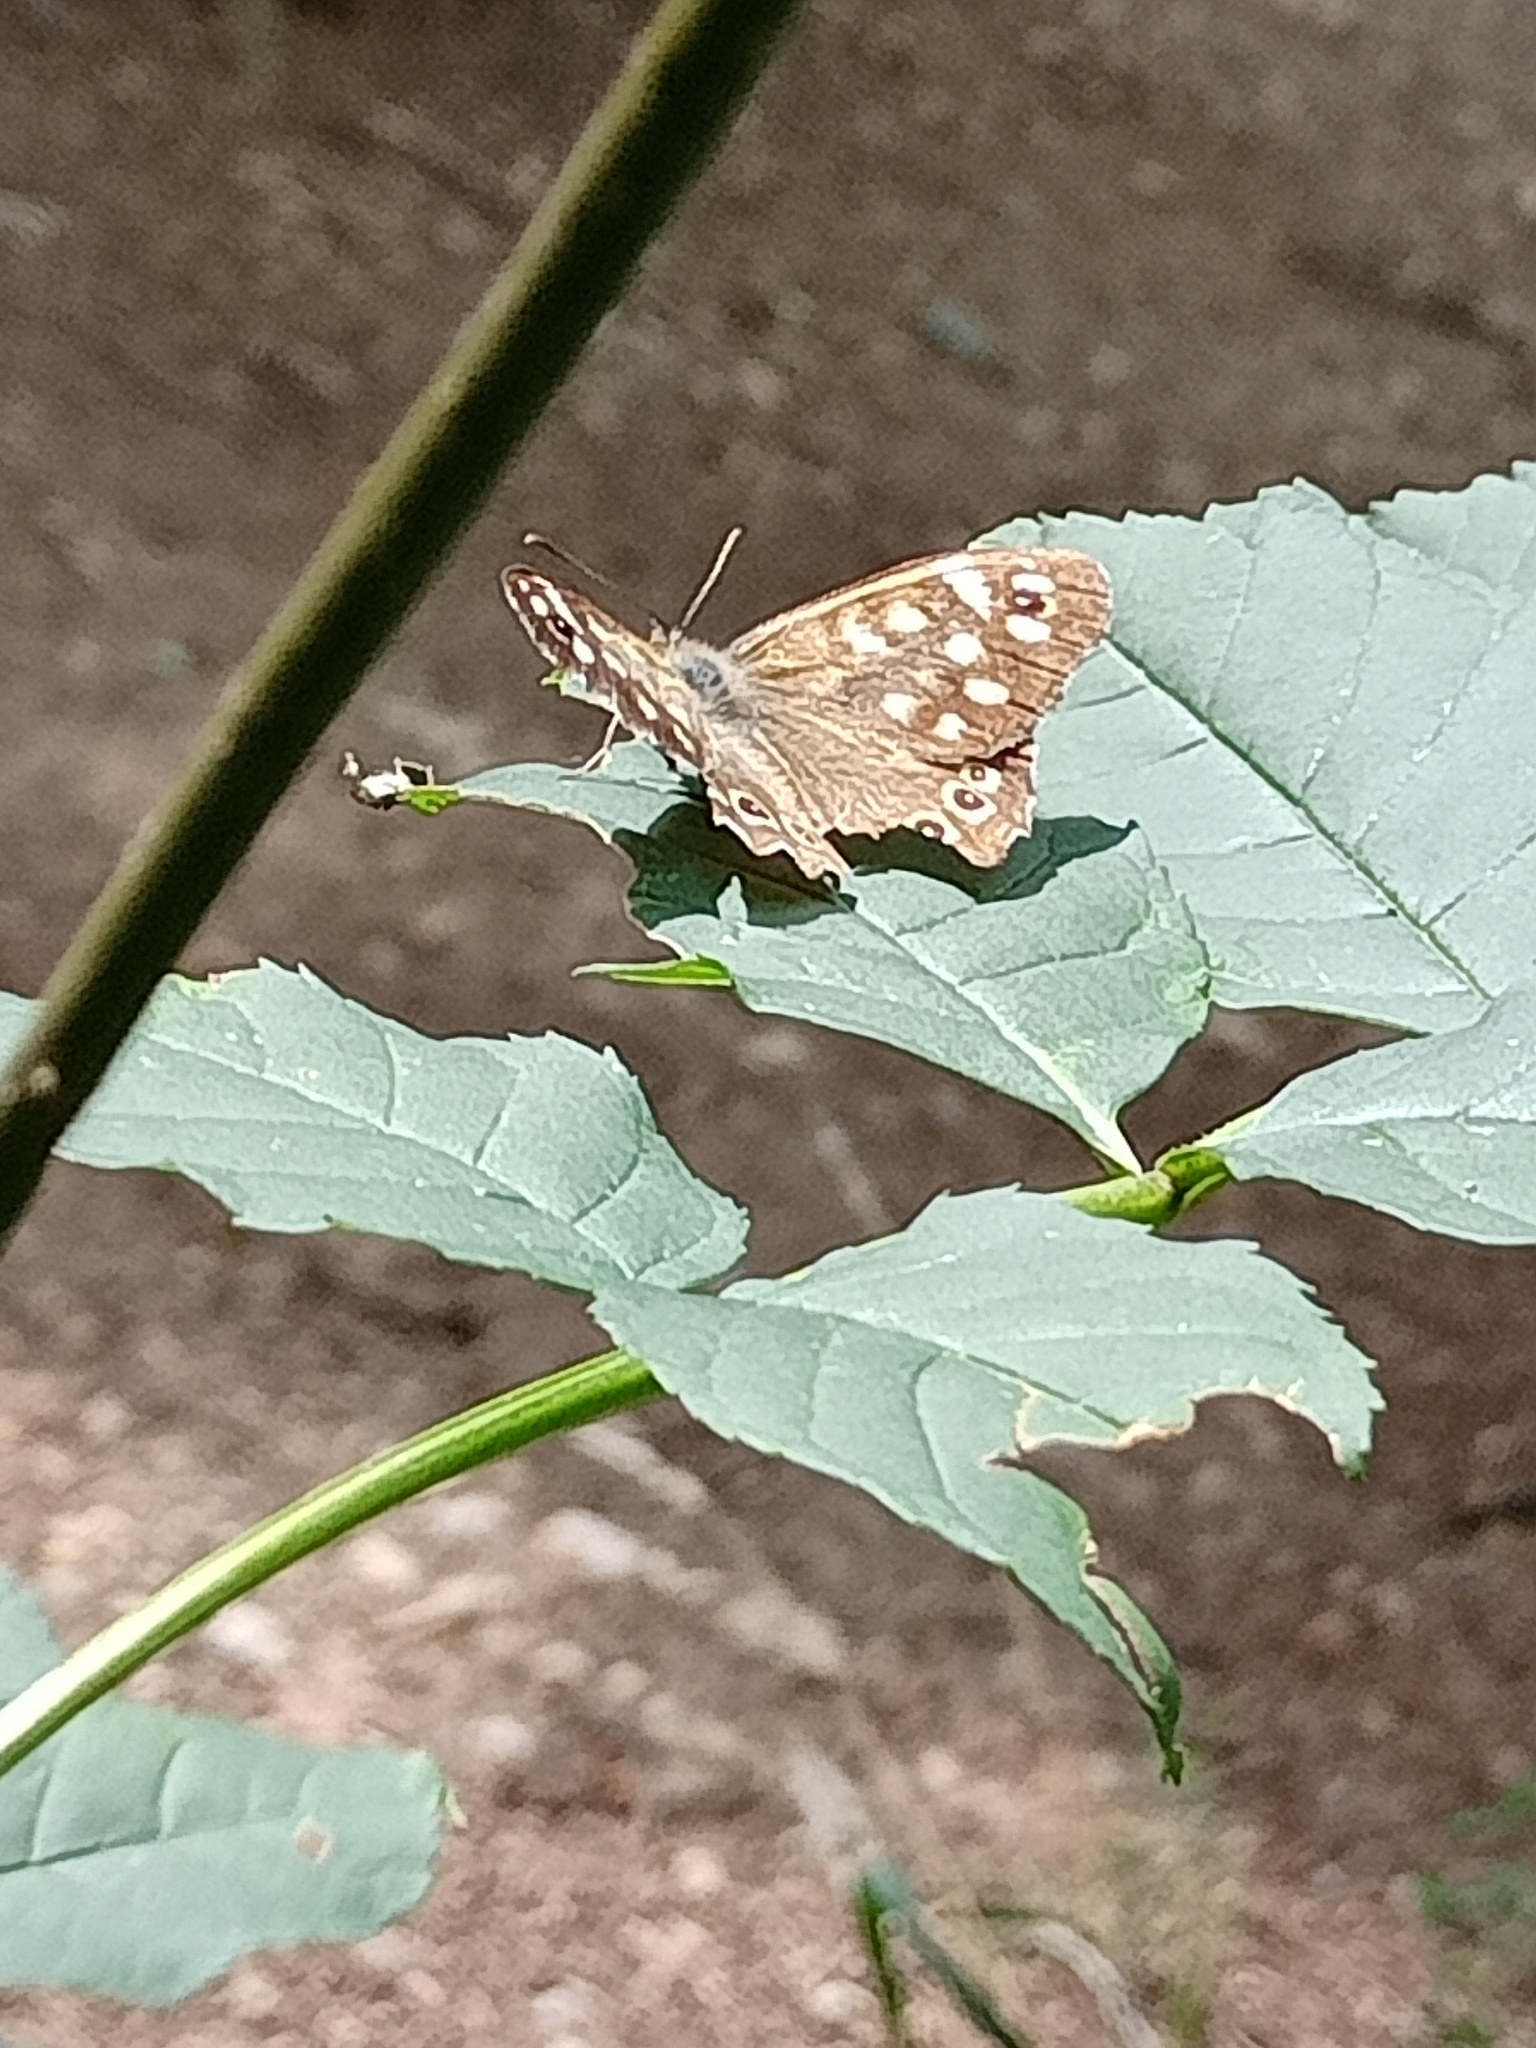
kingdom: Animalia
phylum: Arthropoda
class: Insecta
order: Lepidoptera
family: Nymphalidae
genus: Pararge
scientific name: Pararge aegeria
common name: Speckled wood
